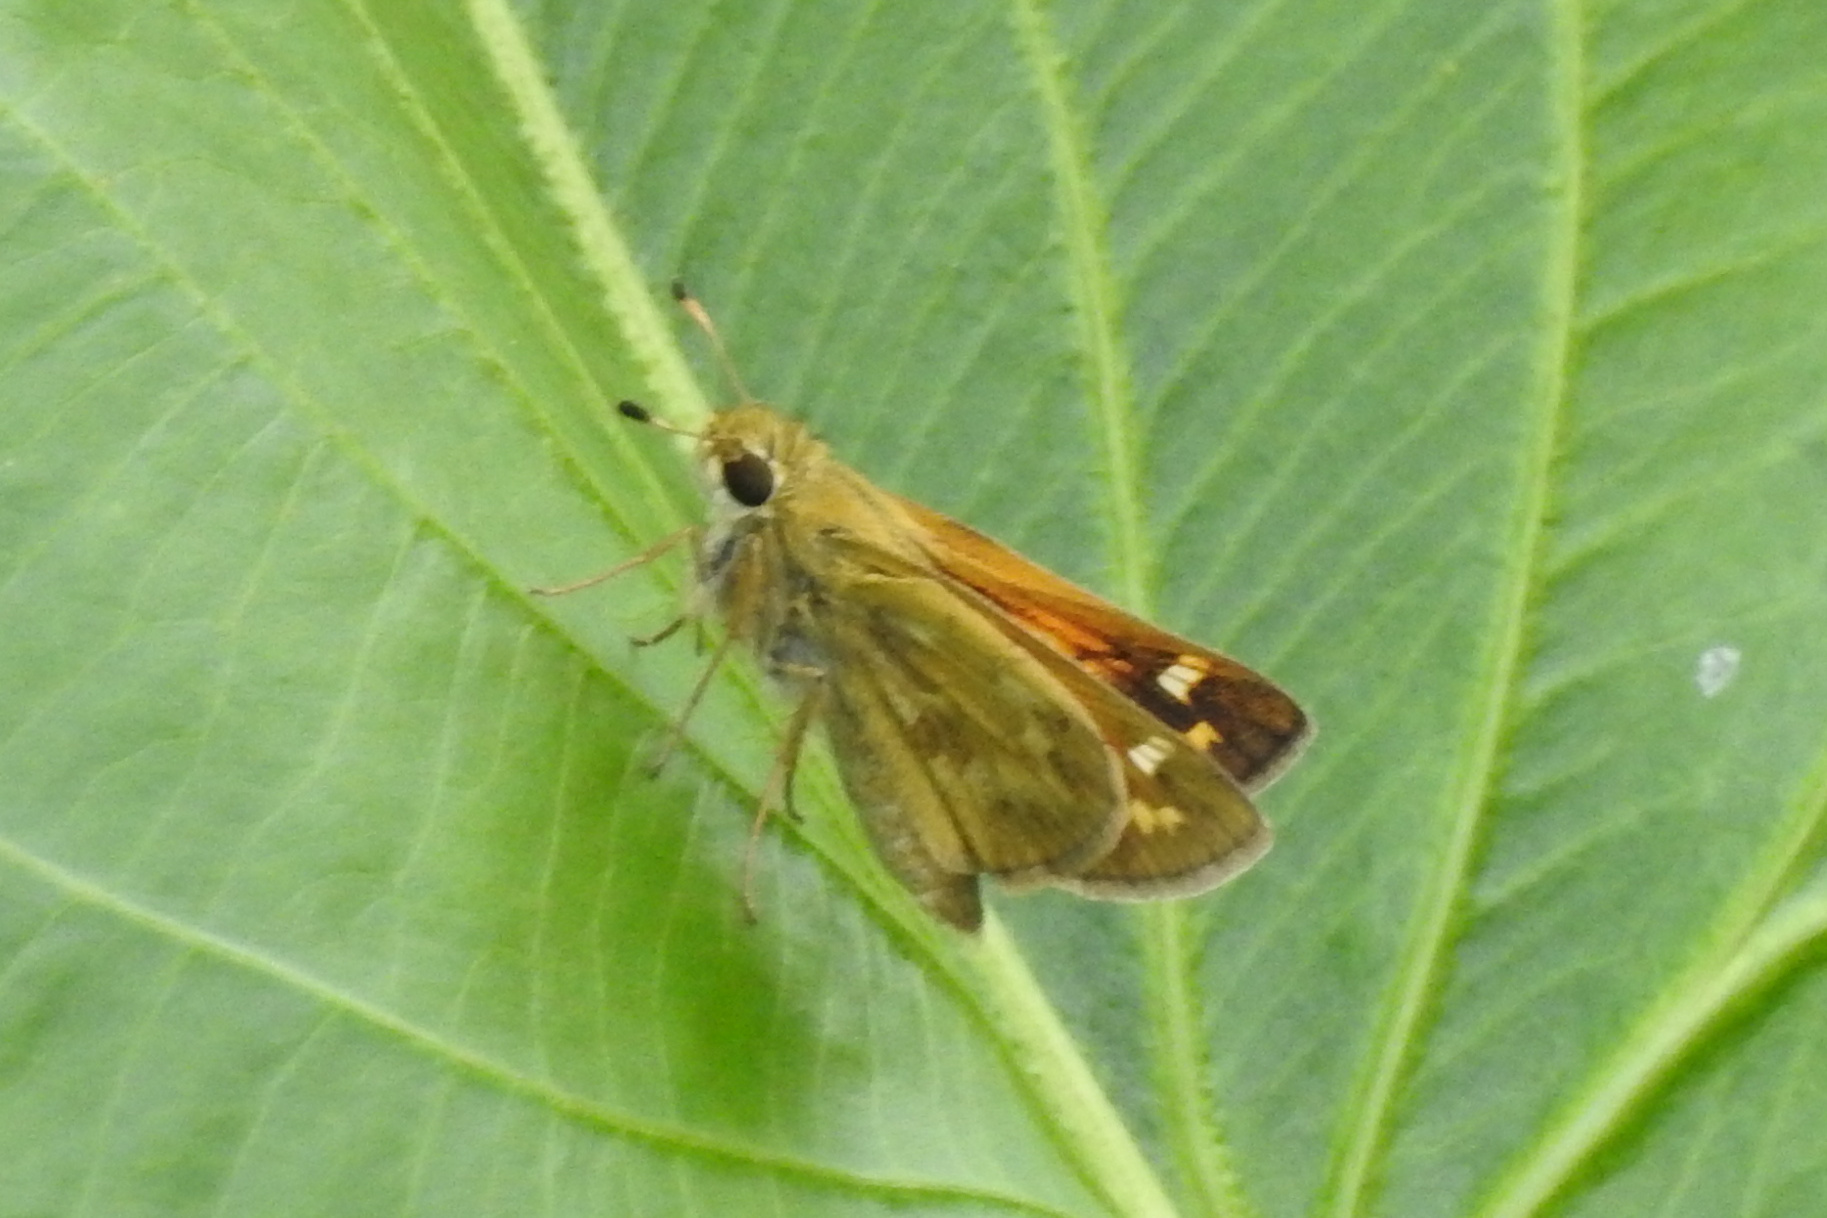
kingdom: Animalia
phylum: Arthropoda
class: Insecta
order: Lepidoptera
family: Hesperiidae
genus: Atalopedes
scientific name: Atalopedes
